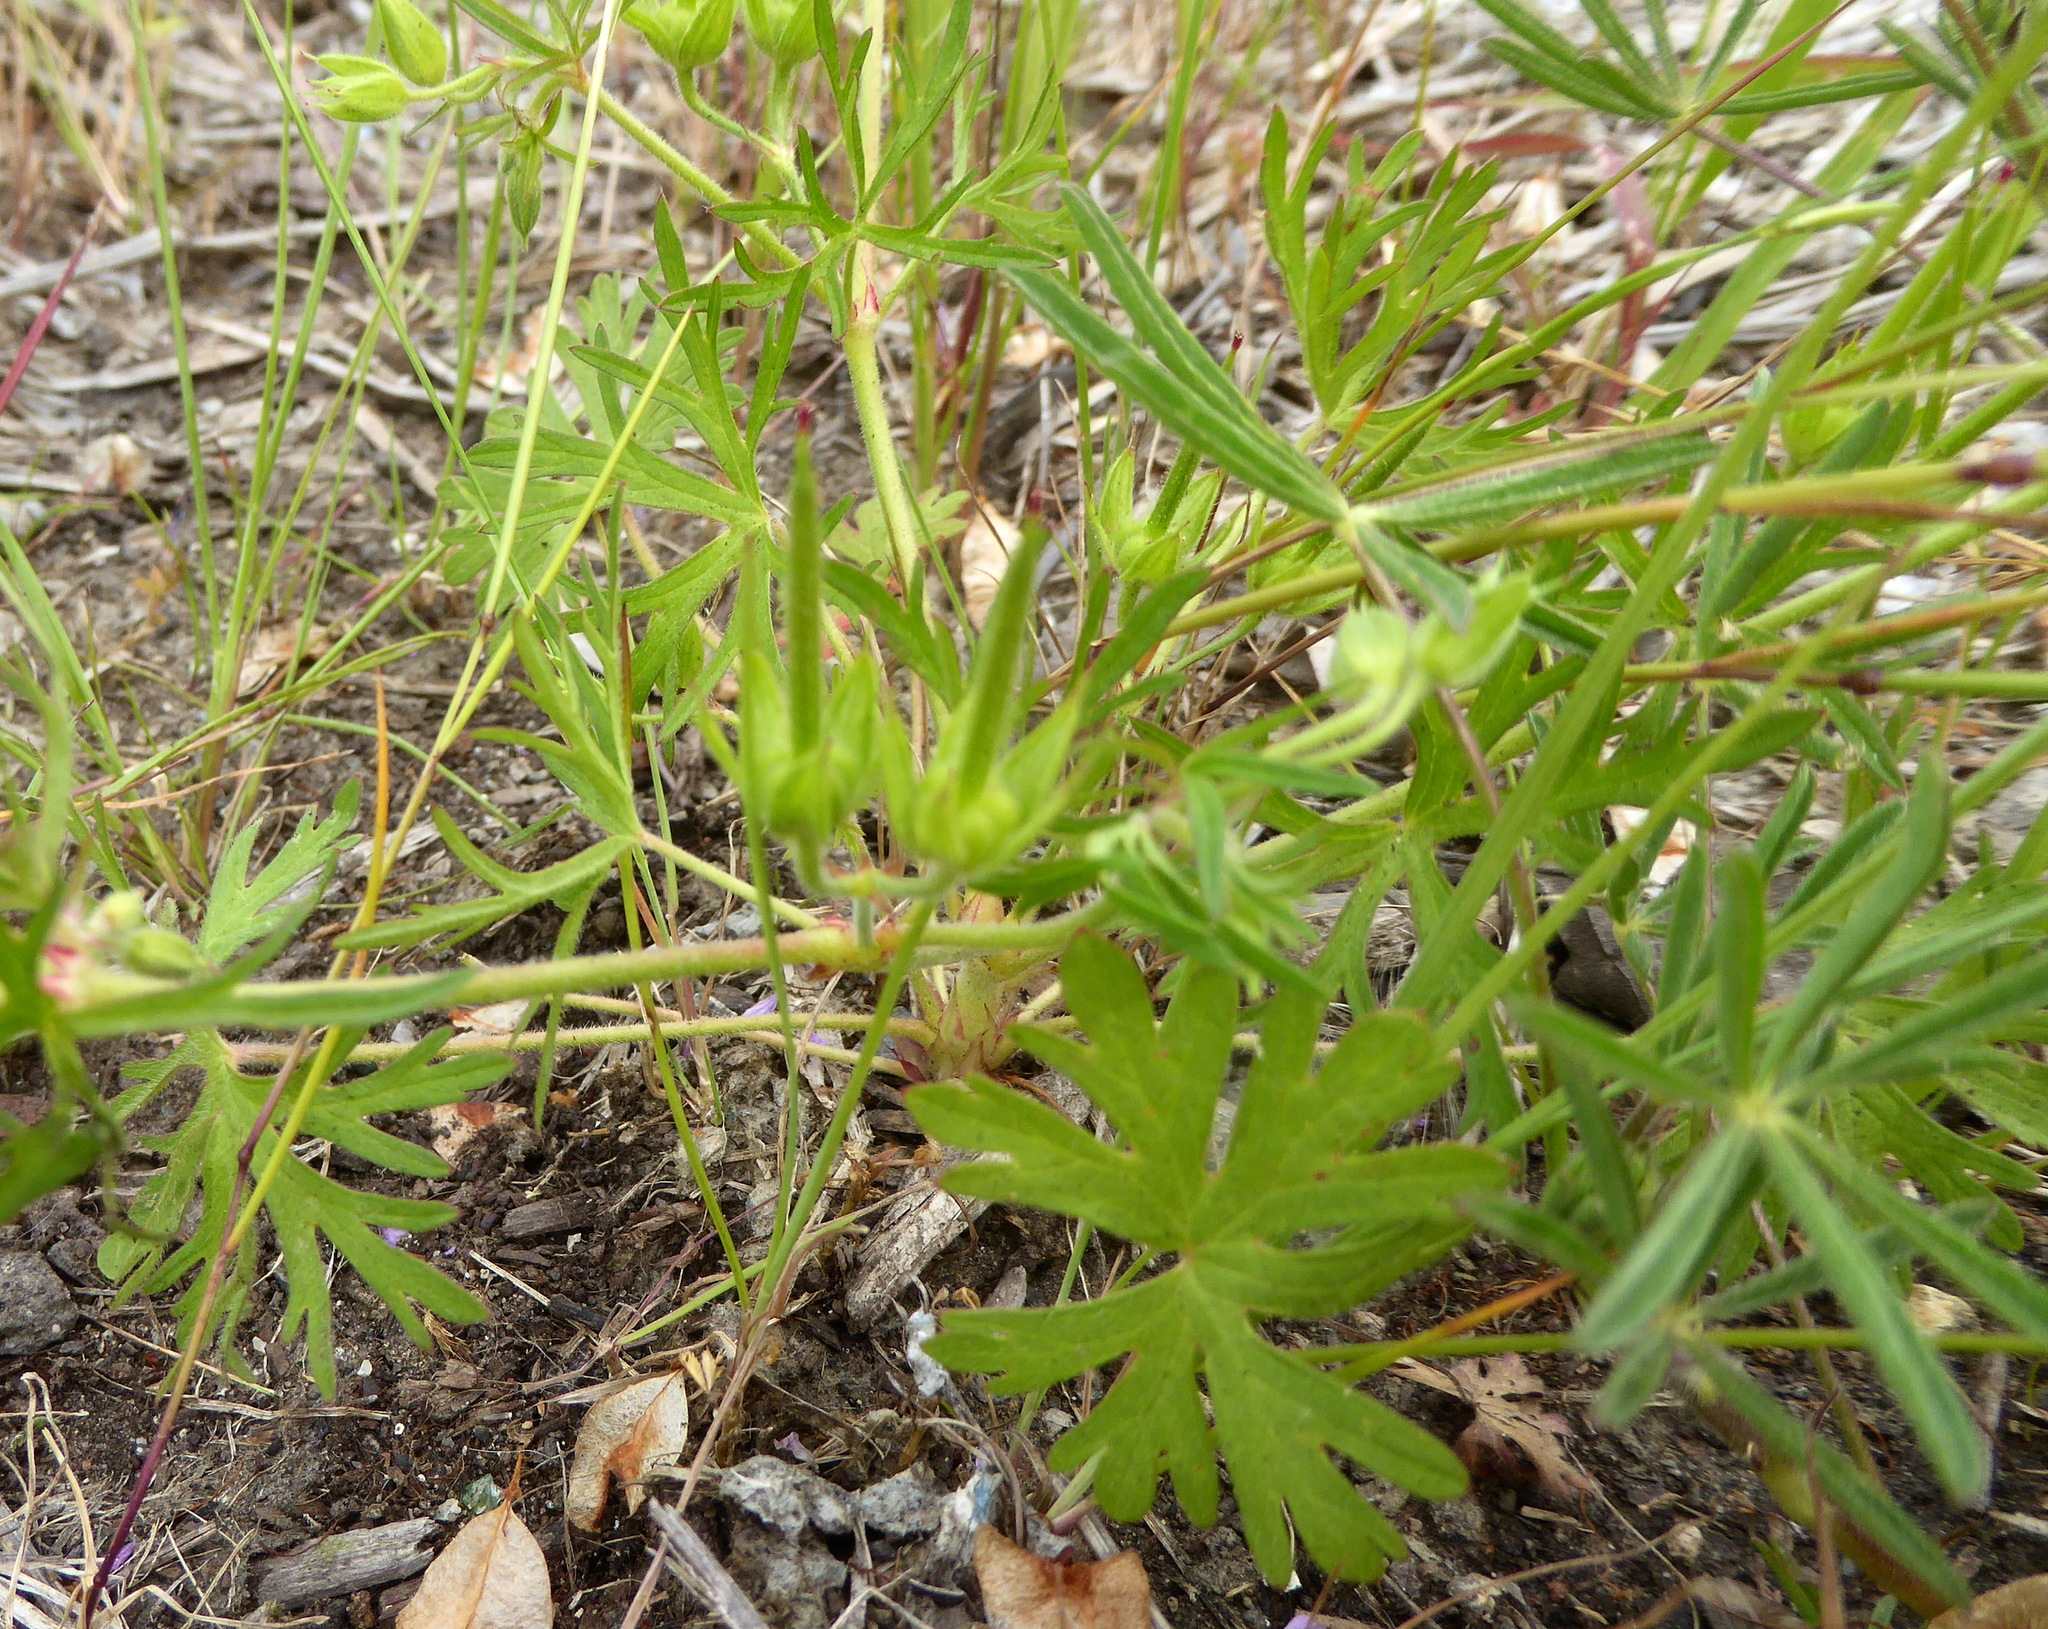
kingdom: Plantae
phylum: Tracheophyta
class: Magnoliopsida
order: Geraniales
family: Geraniaceae
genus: Geranium
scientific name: Geranium dissectum
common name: Cut-leaved crane's-bill
